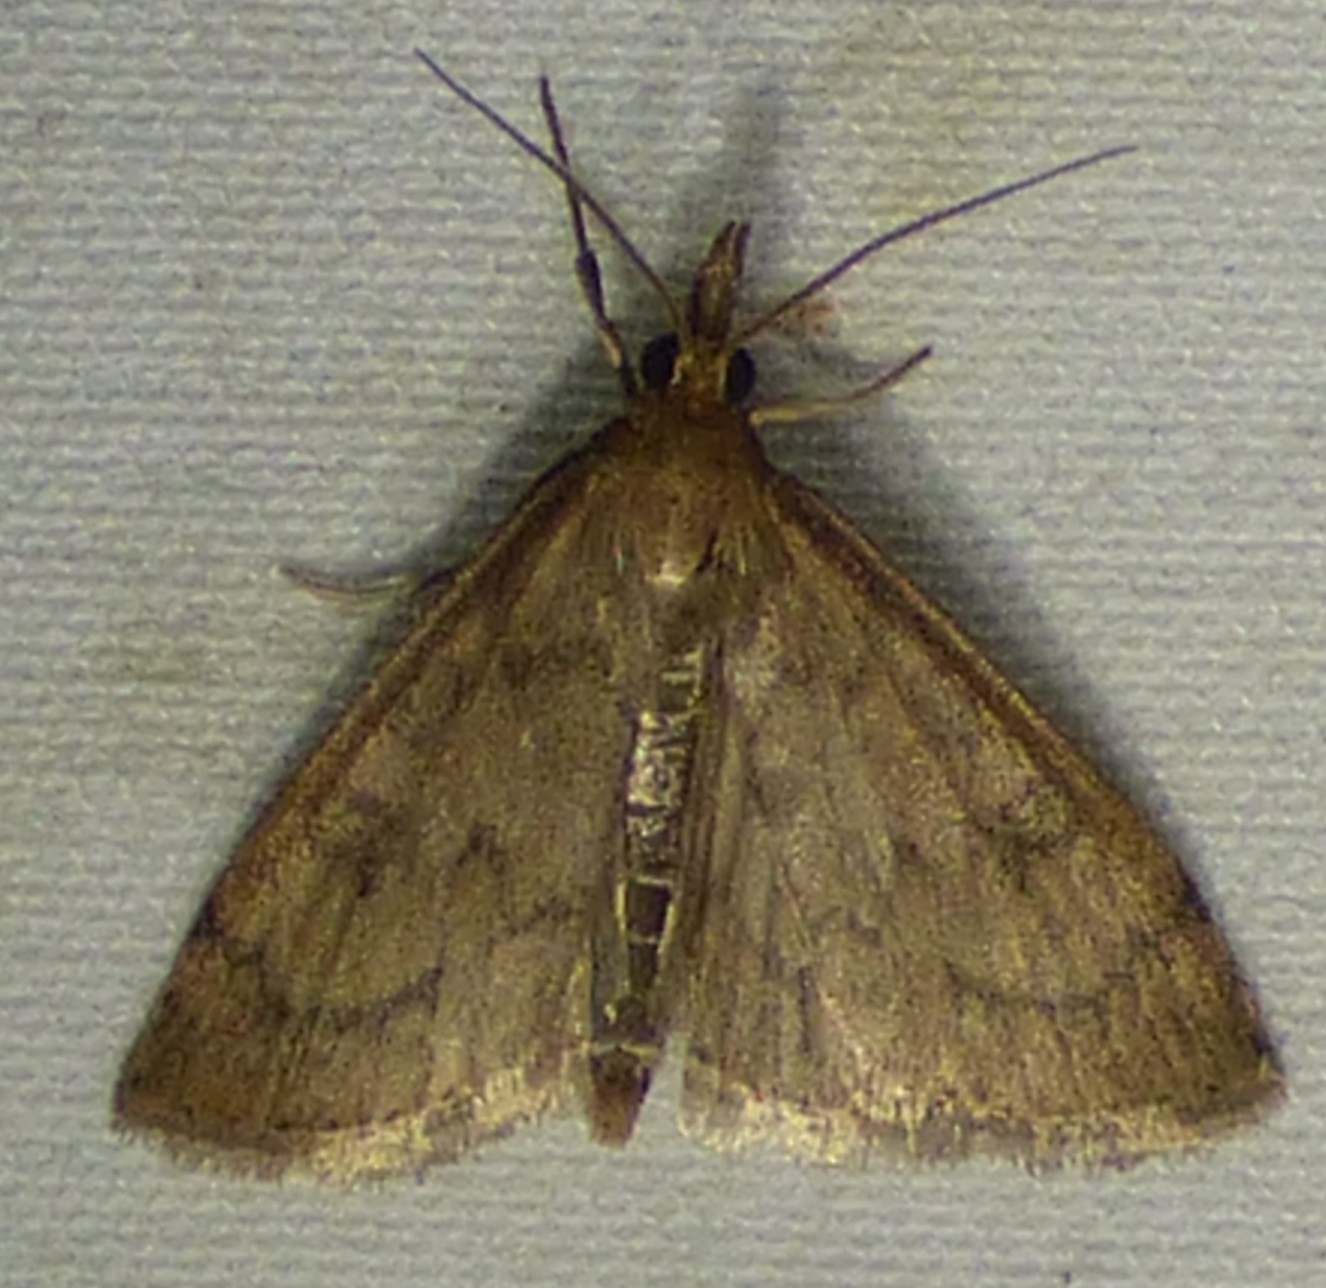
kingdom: Animalia
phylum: Arthropoda
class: Insecta
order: Lepidoptera
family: Crambidae
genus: Udea
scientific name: Udea rubigalis
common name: Celery leaftier moth
